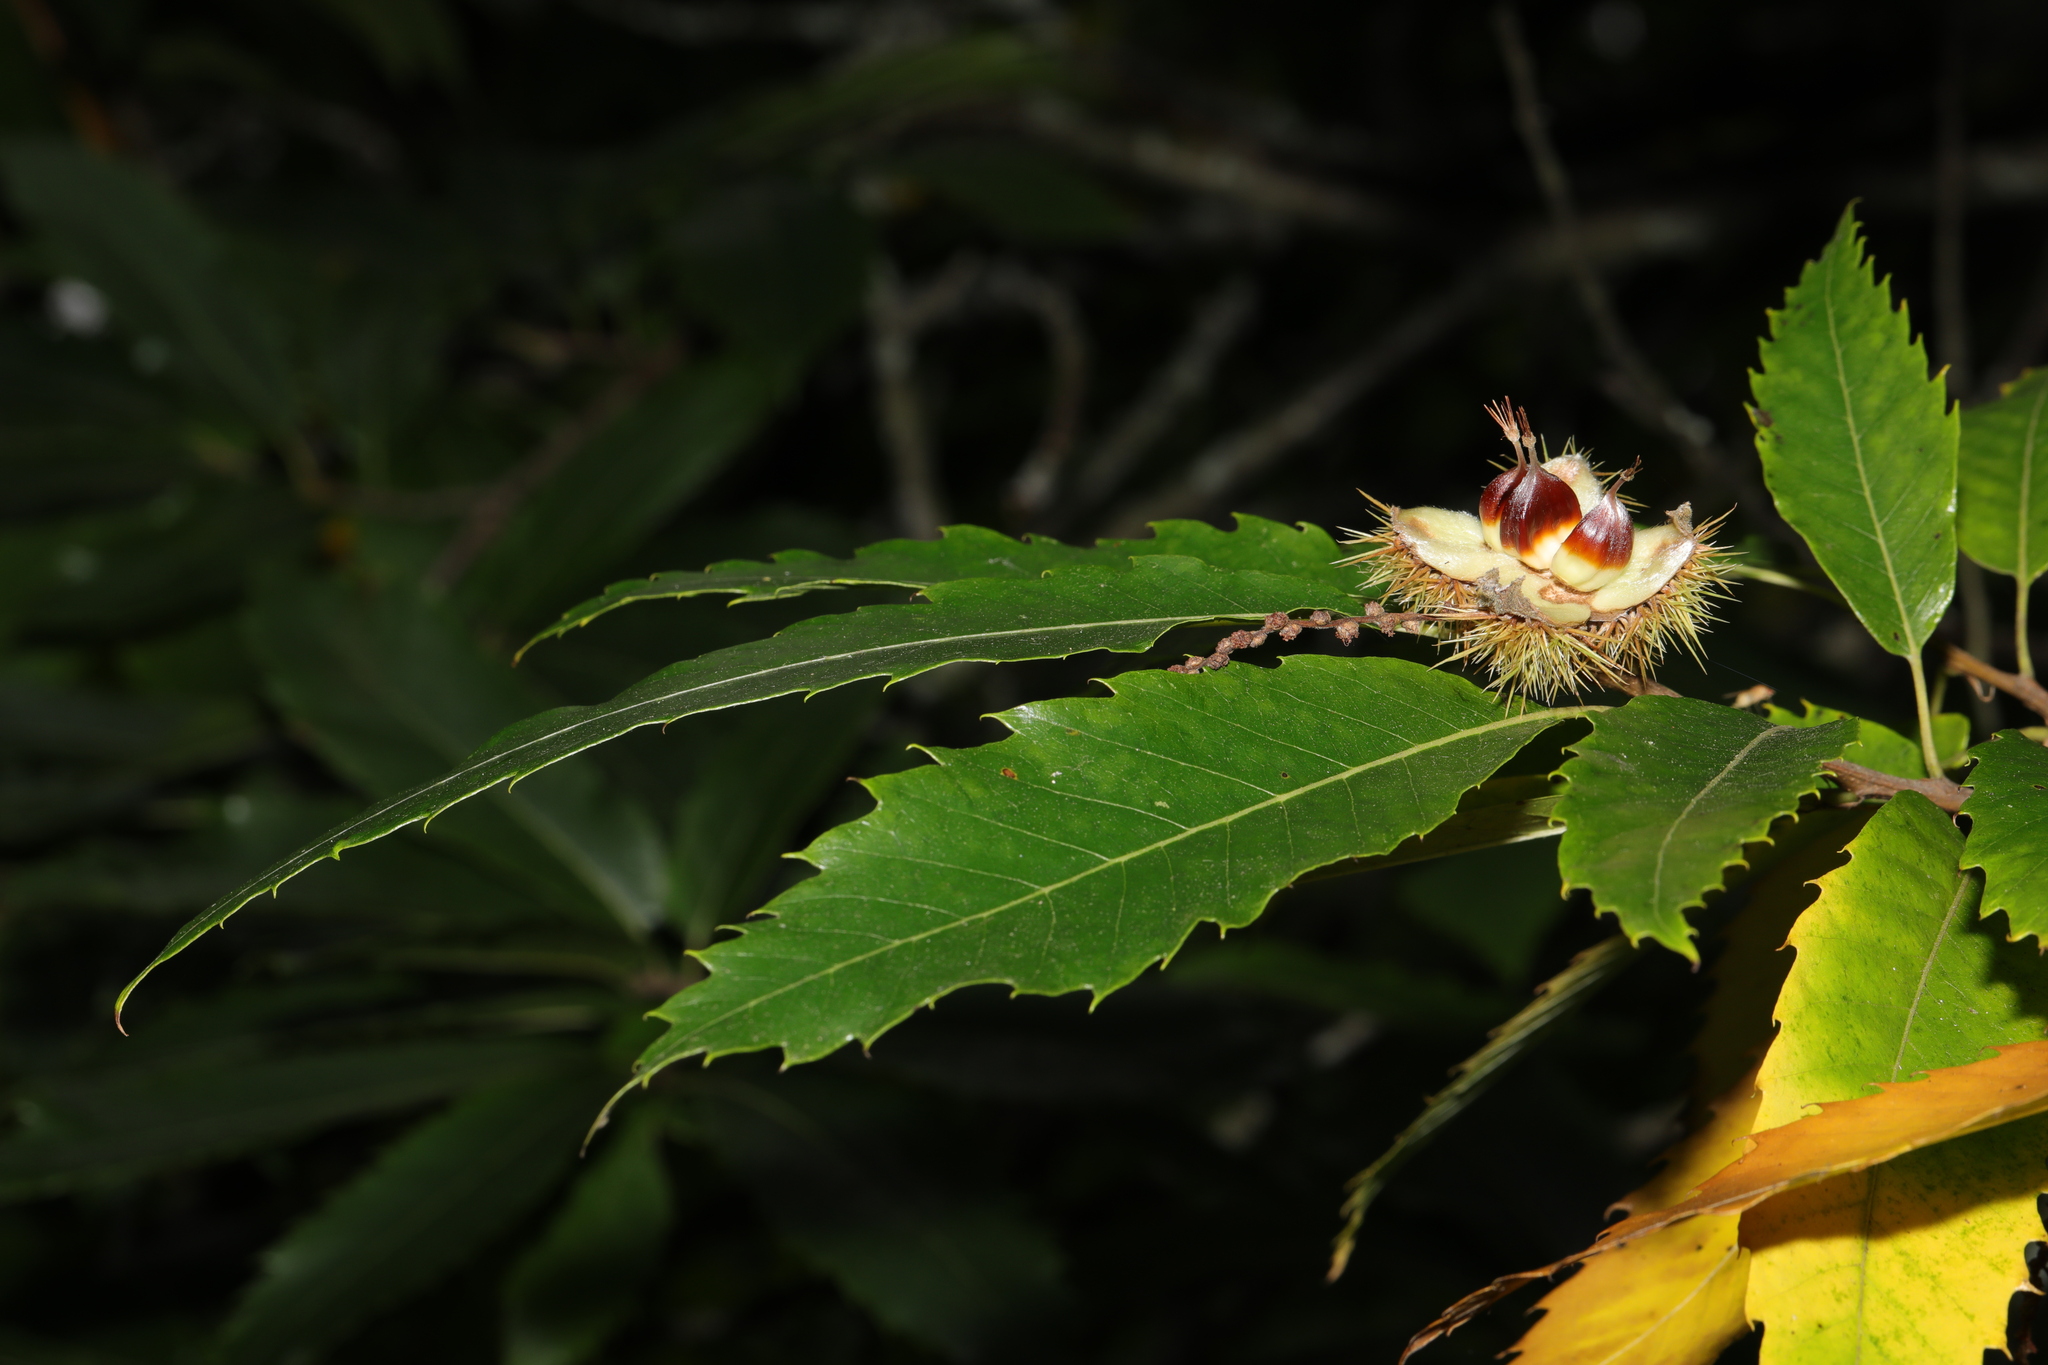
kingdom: Plantae
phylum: Tracheophyta
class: Magnoliopsida
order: Fagales
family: Fagaceae
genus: Castanea
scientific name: Castanea sativa
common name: Sweet chestnut
